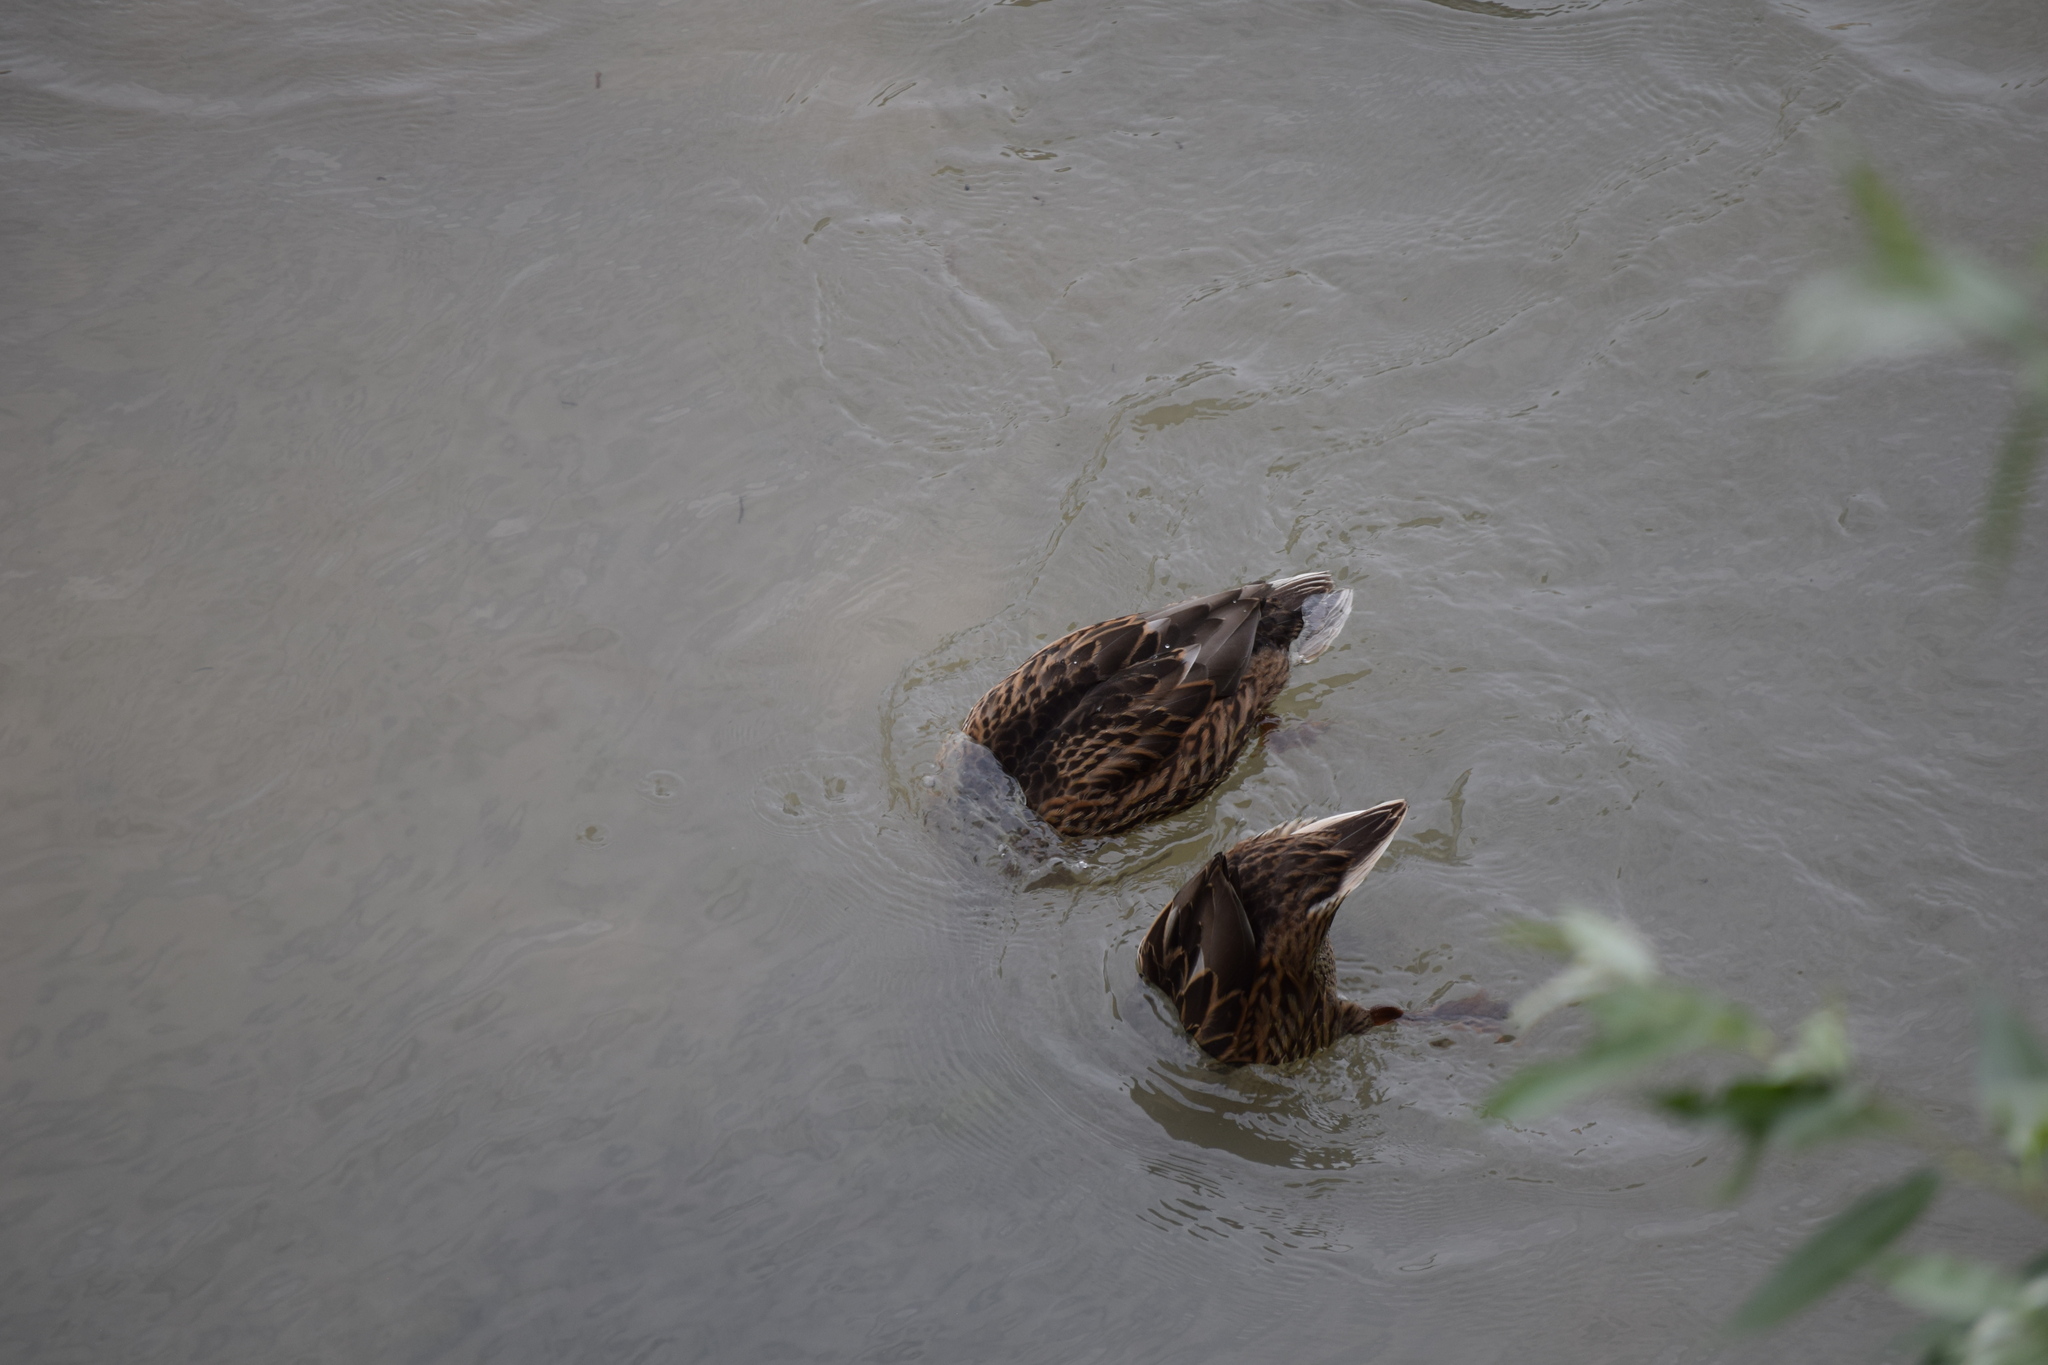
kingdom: Animalia
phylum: Chordata
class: Aves
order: Anseriformes
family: Anatidae
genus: Anas
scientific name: Anas platyrhynchos
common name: Mallard
